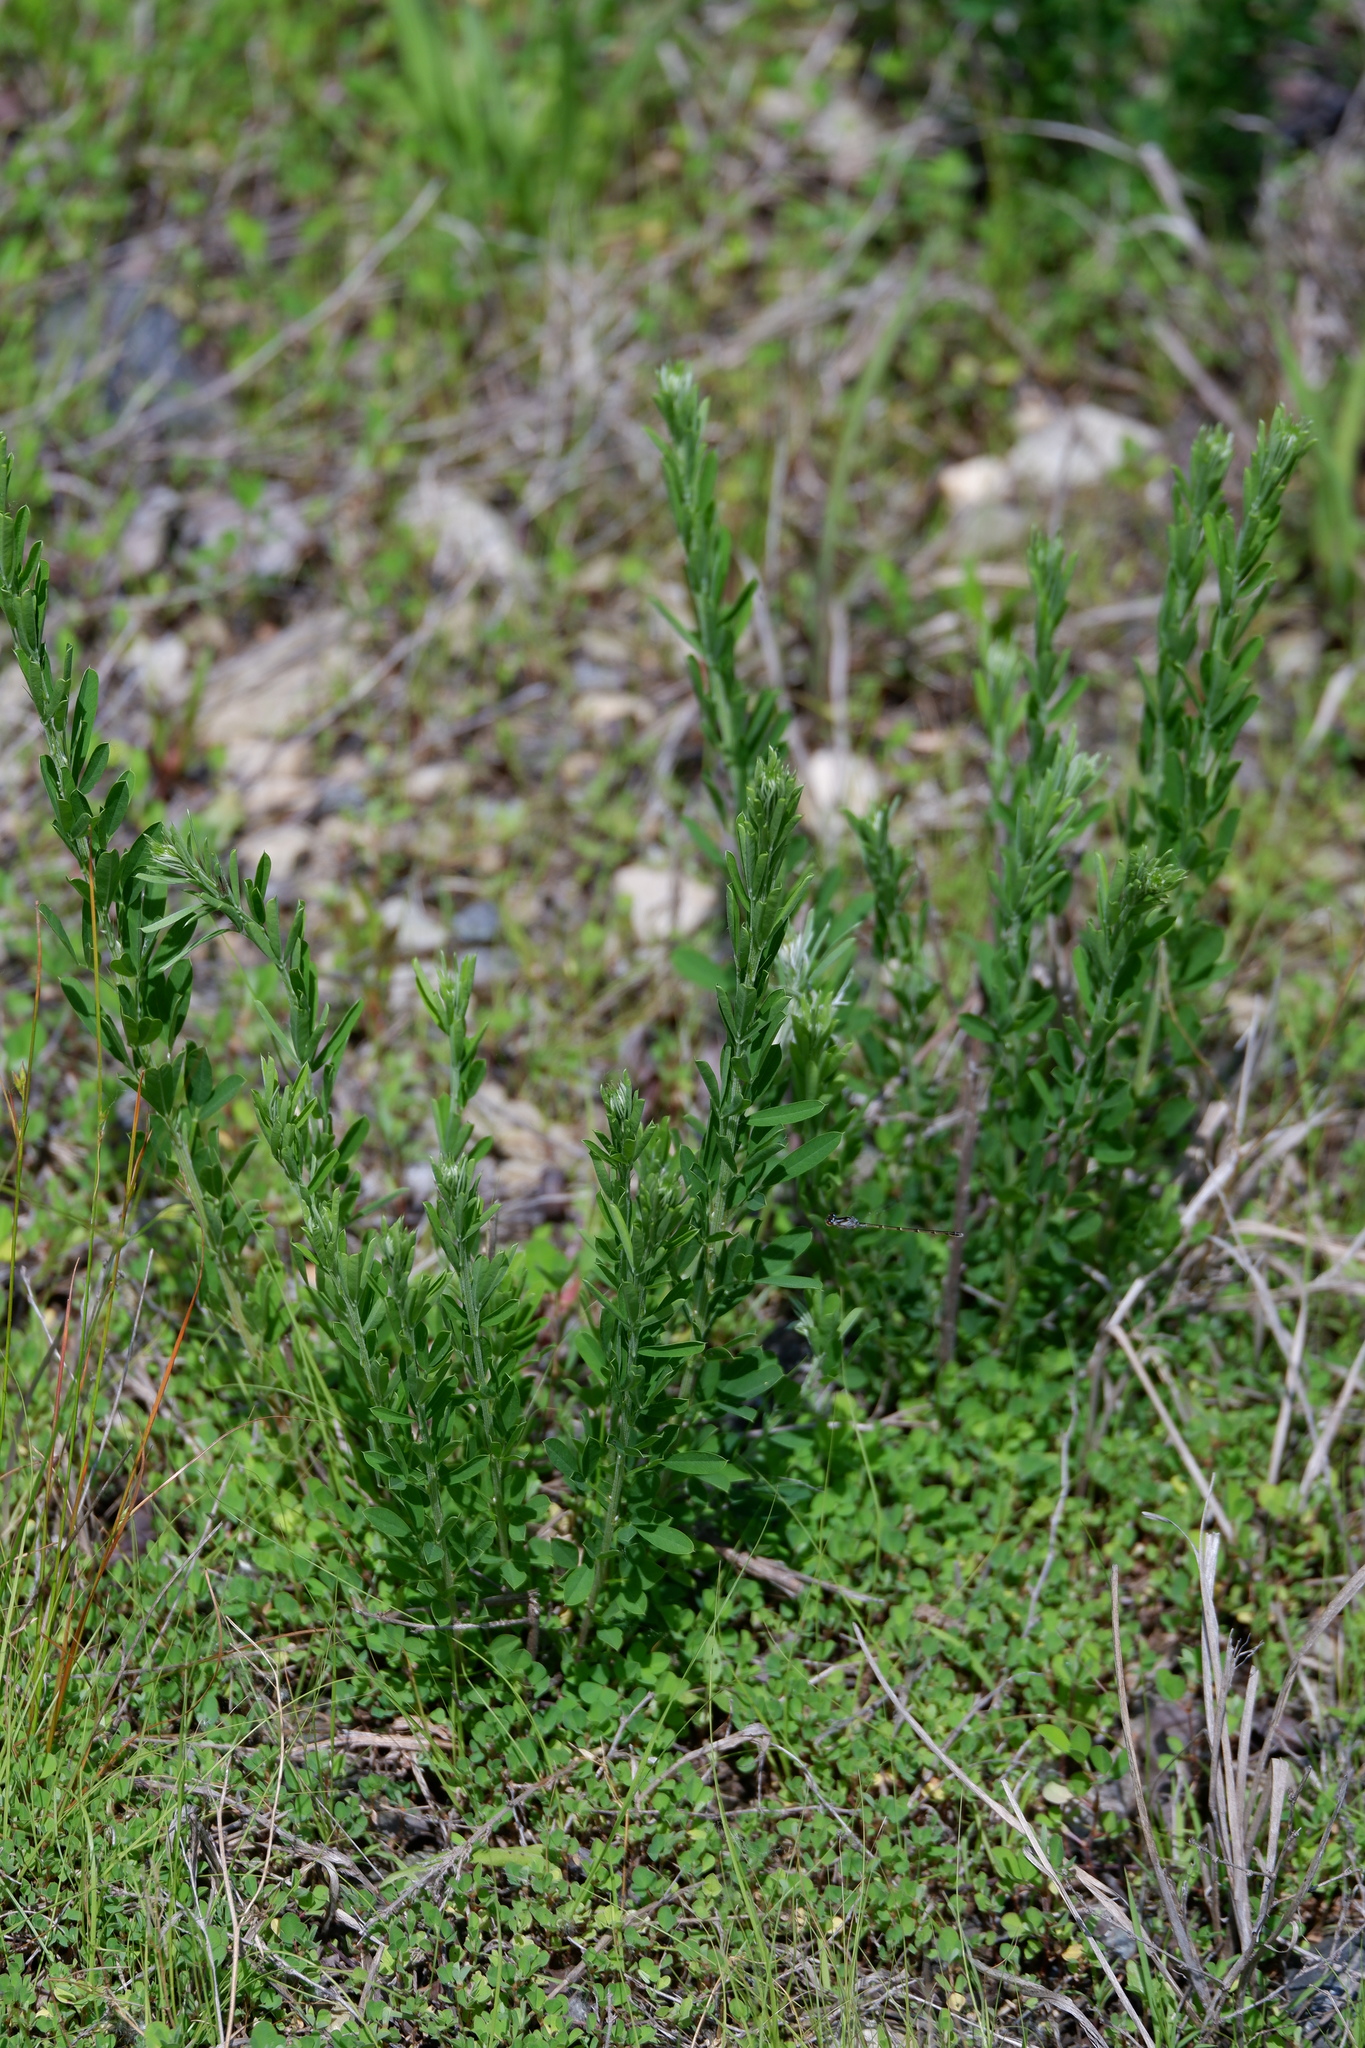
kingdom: Plantae
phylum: Tracheophyta
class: Magnoliopsida
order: Fabales
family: Fabaceae
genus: Lespedeza
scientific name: Lespedeza cuneata
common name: Chinese bush-clover
